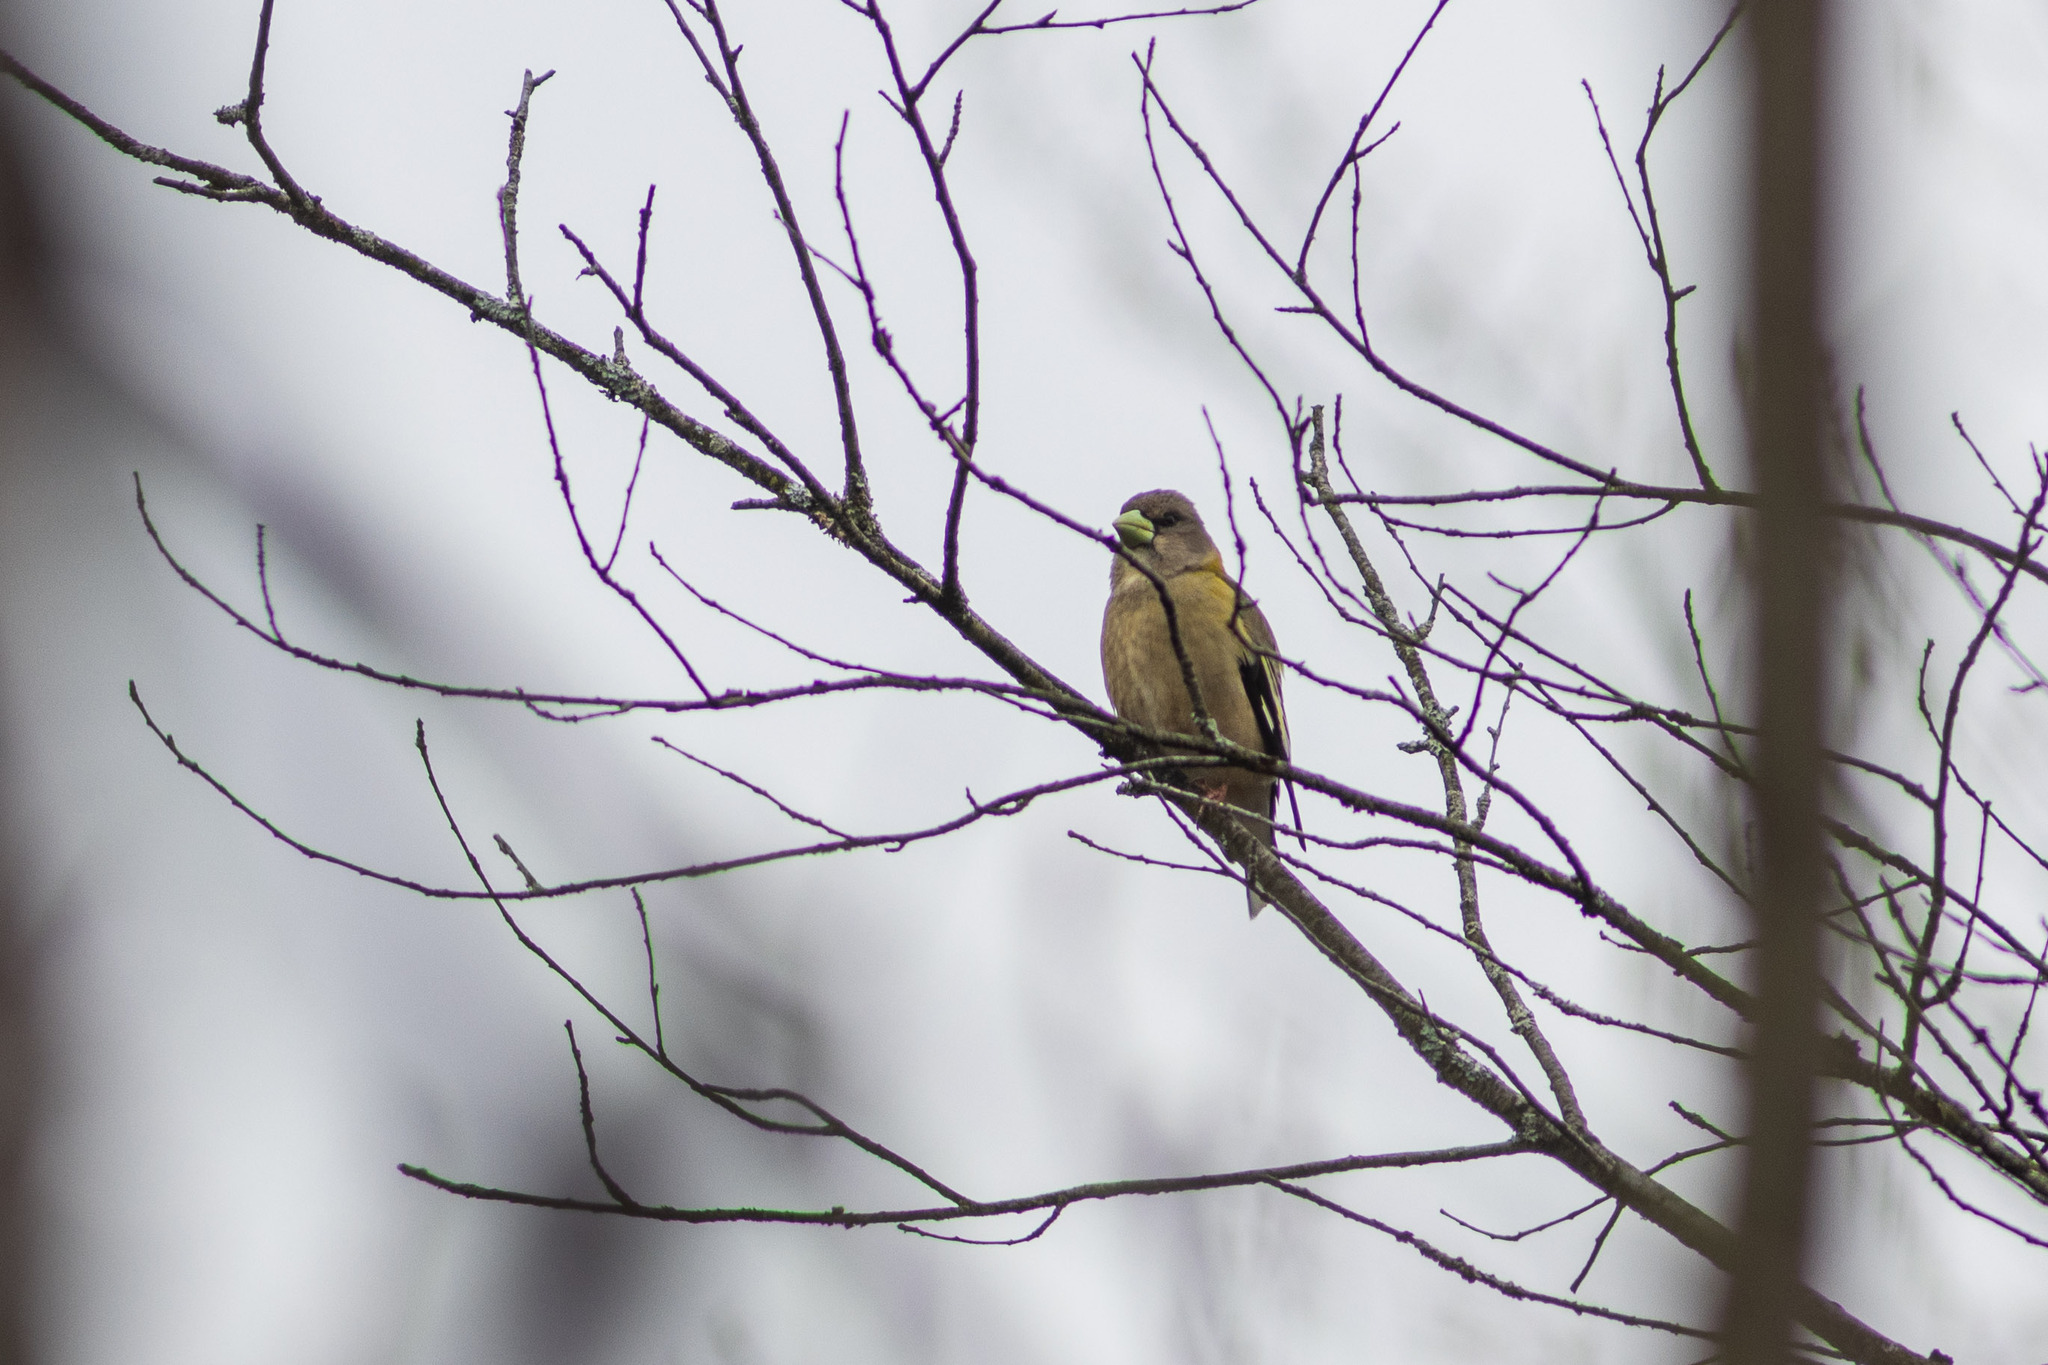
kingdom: Animalia
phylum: Chordata
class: Aves
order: Passeriformes
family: Fringillidae
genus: Hesperiphona
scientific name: Hesperiphona vespertina
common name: Evening grosbeak
